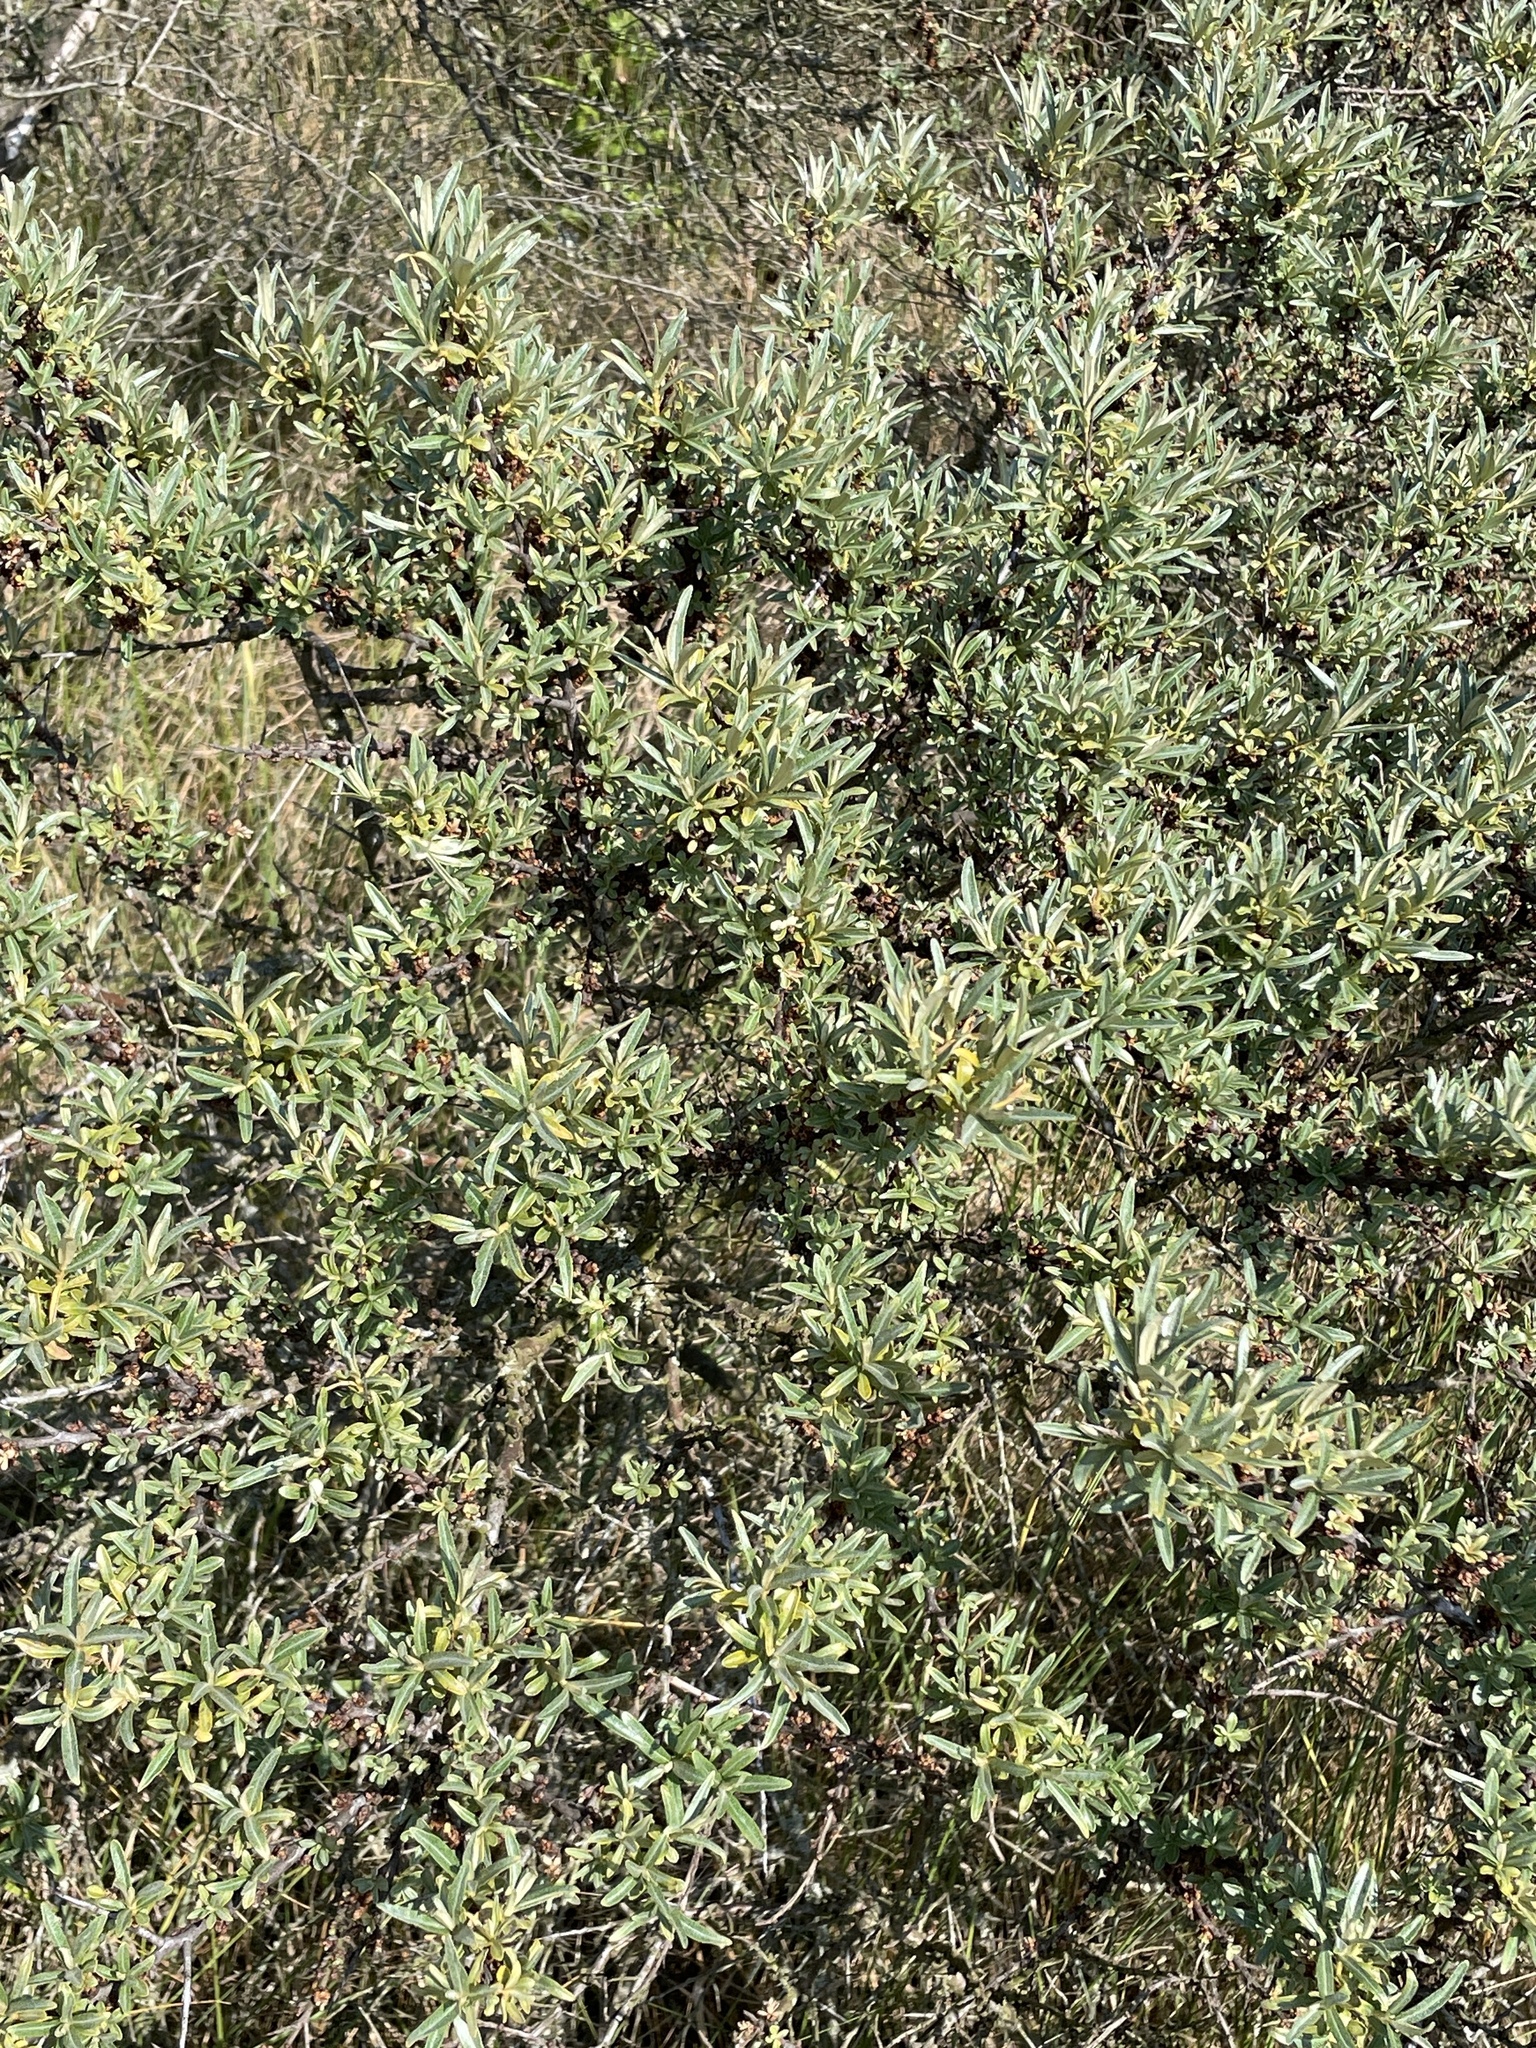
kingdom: Plantae
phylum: Tracheophyta
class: Magnoliopsida
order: Rosales
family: Elaeagnaceae
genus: Hippophae
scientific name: Hippophae rhamnoides
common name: Sea-buckthorn
